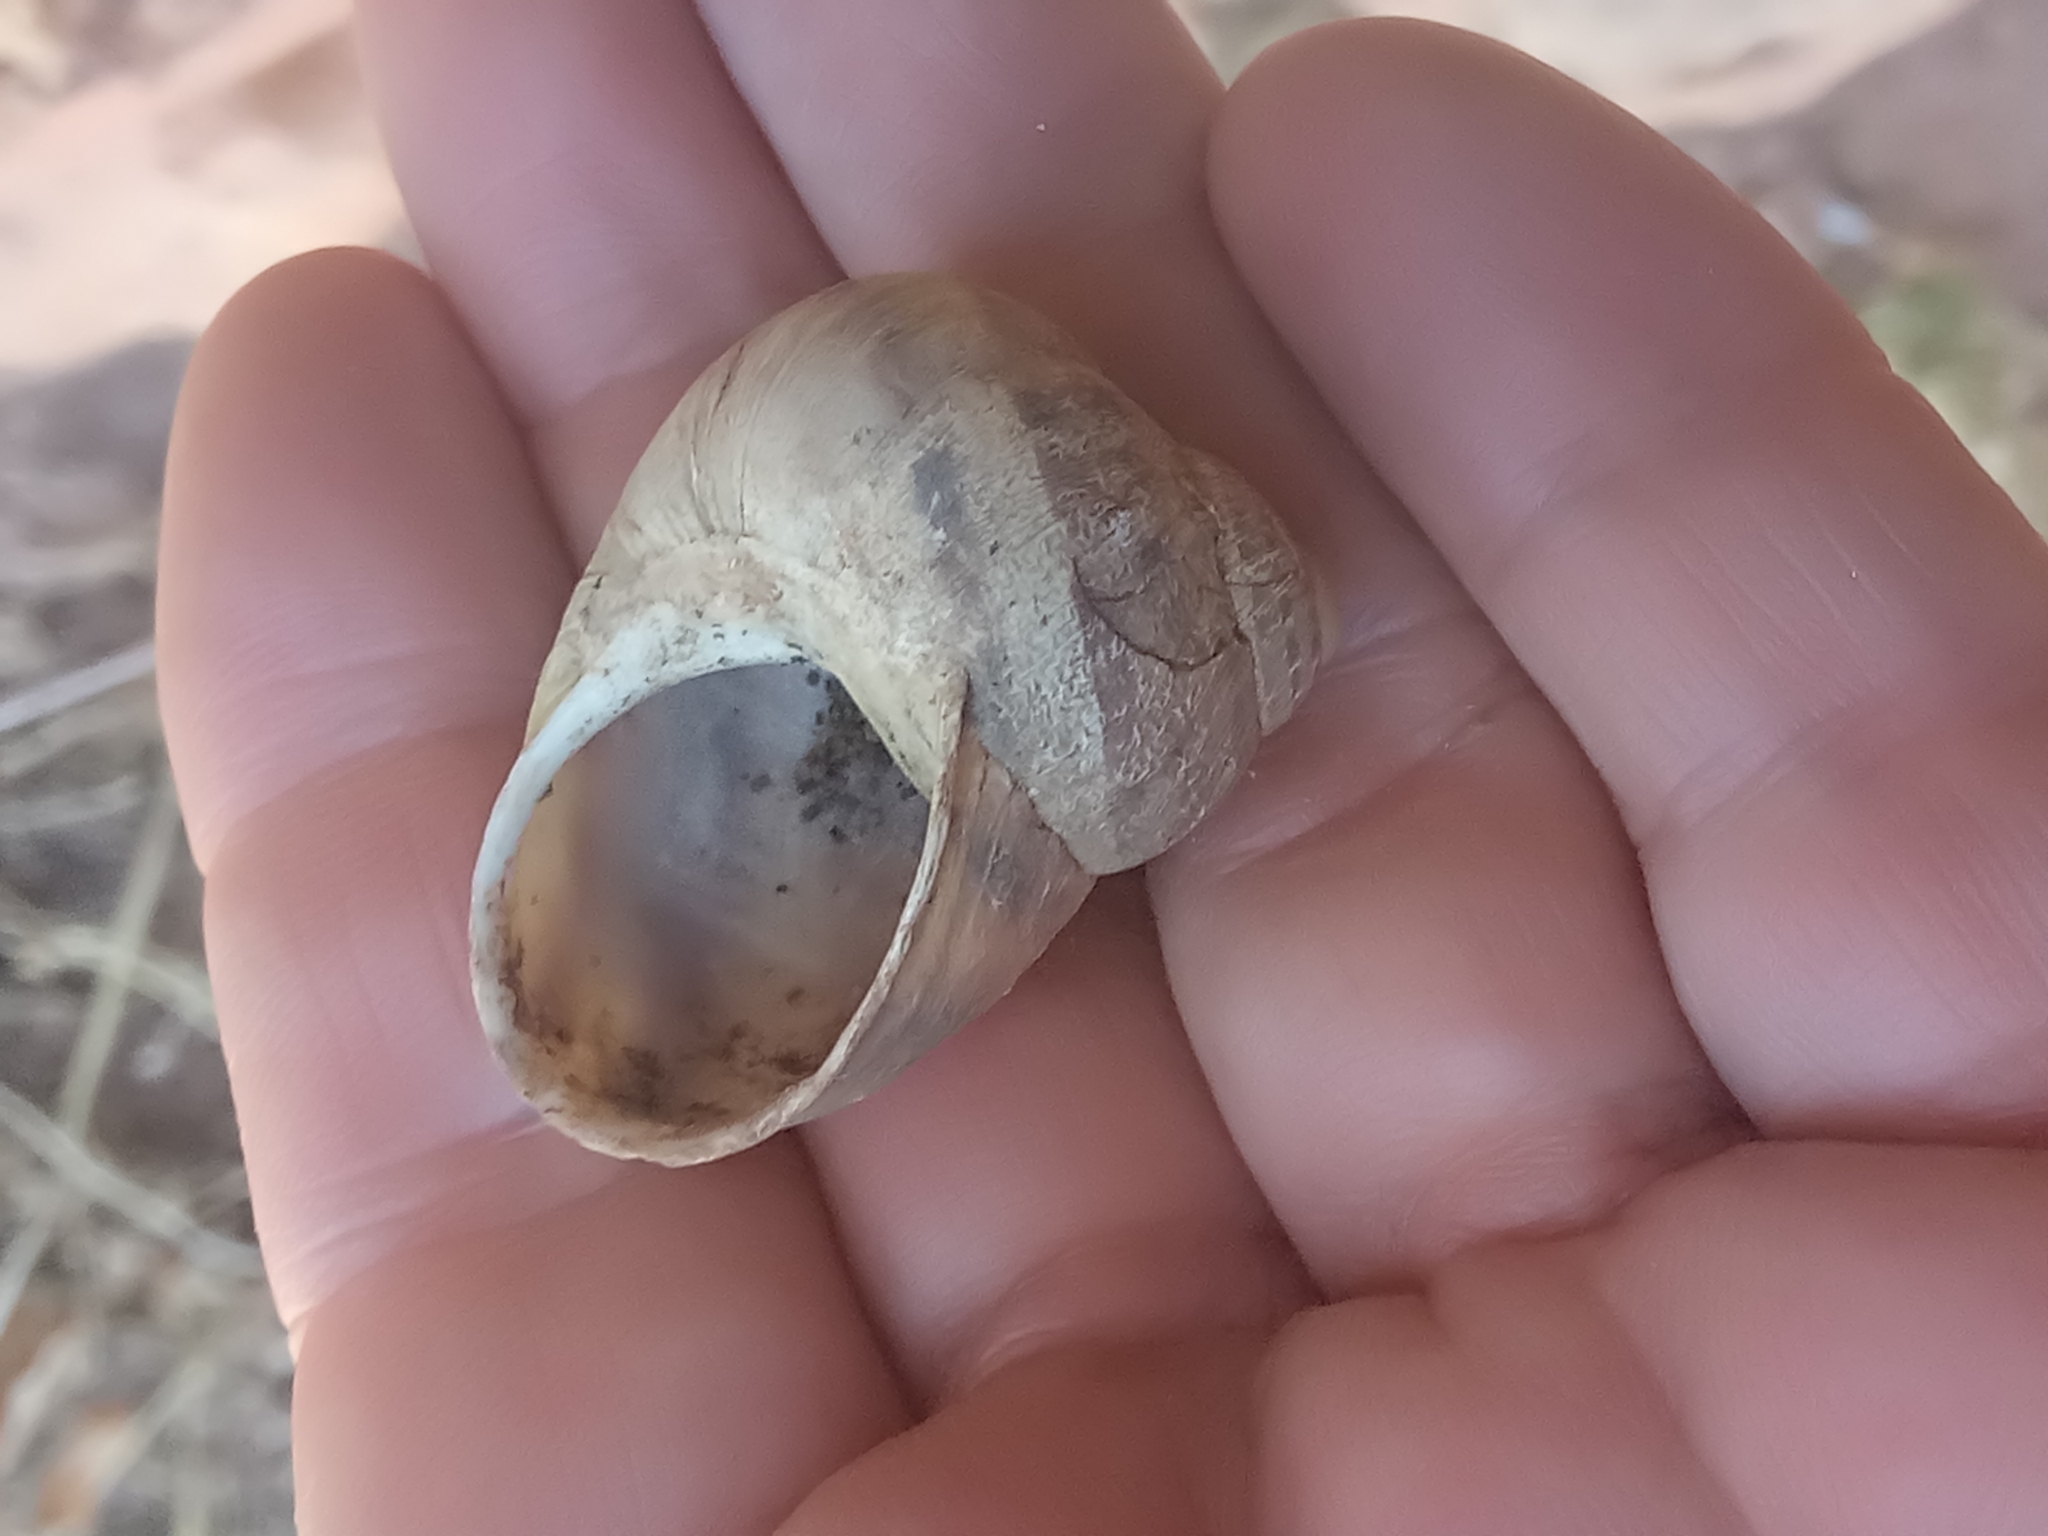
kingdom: Animalia
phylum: Mollusca
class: Gastropoda
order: Stylommatophora
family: Helicidae
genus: Cornu
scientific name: Cornu aspersum
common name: Brown garden snail
